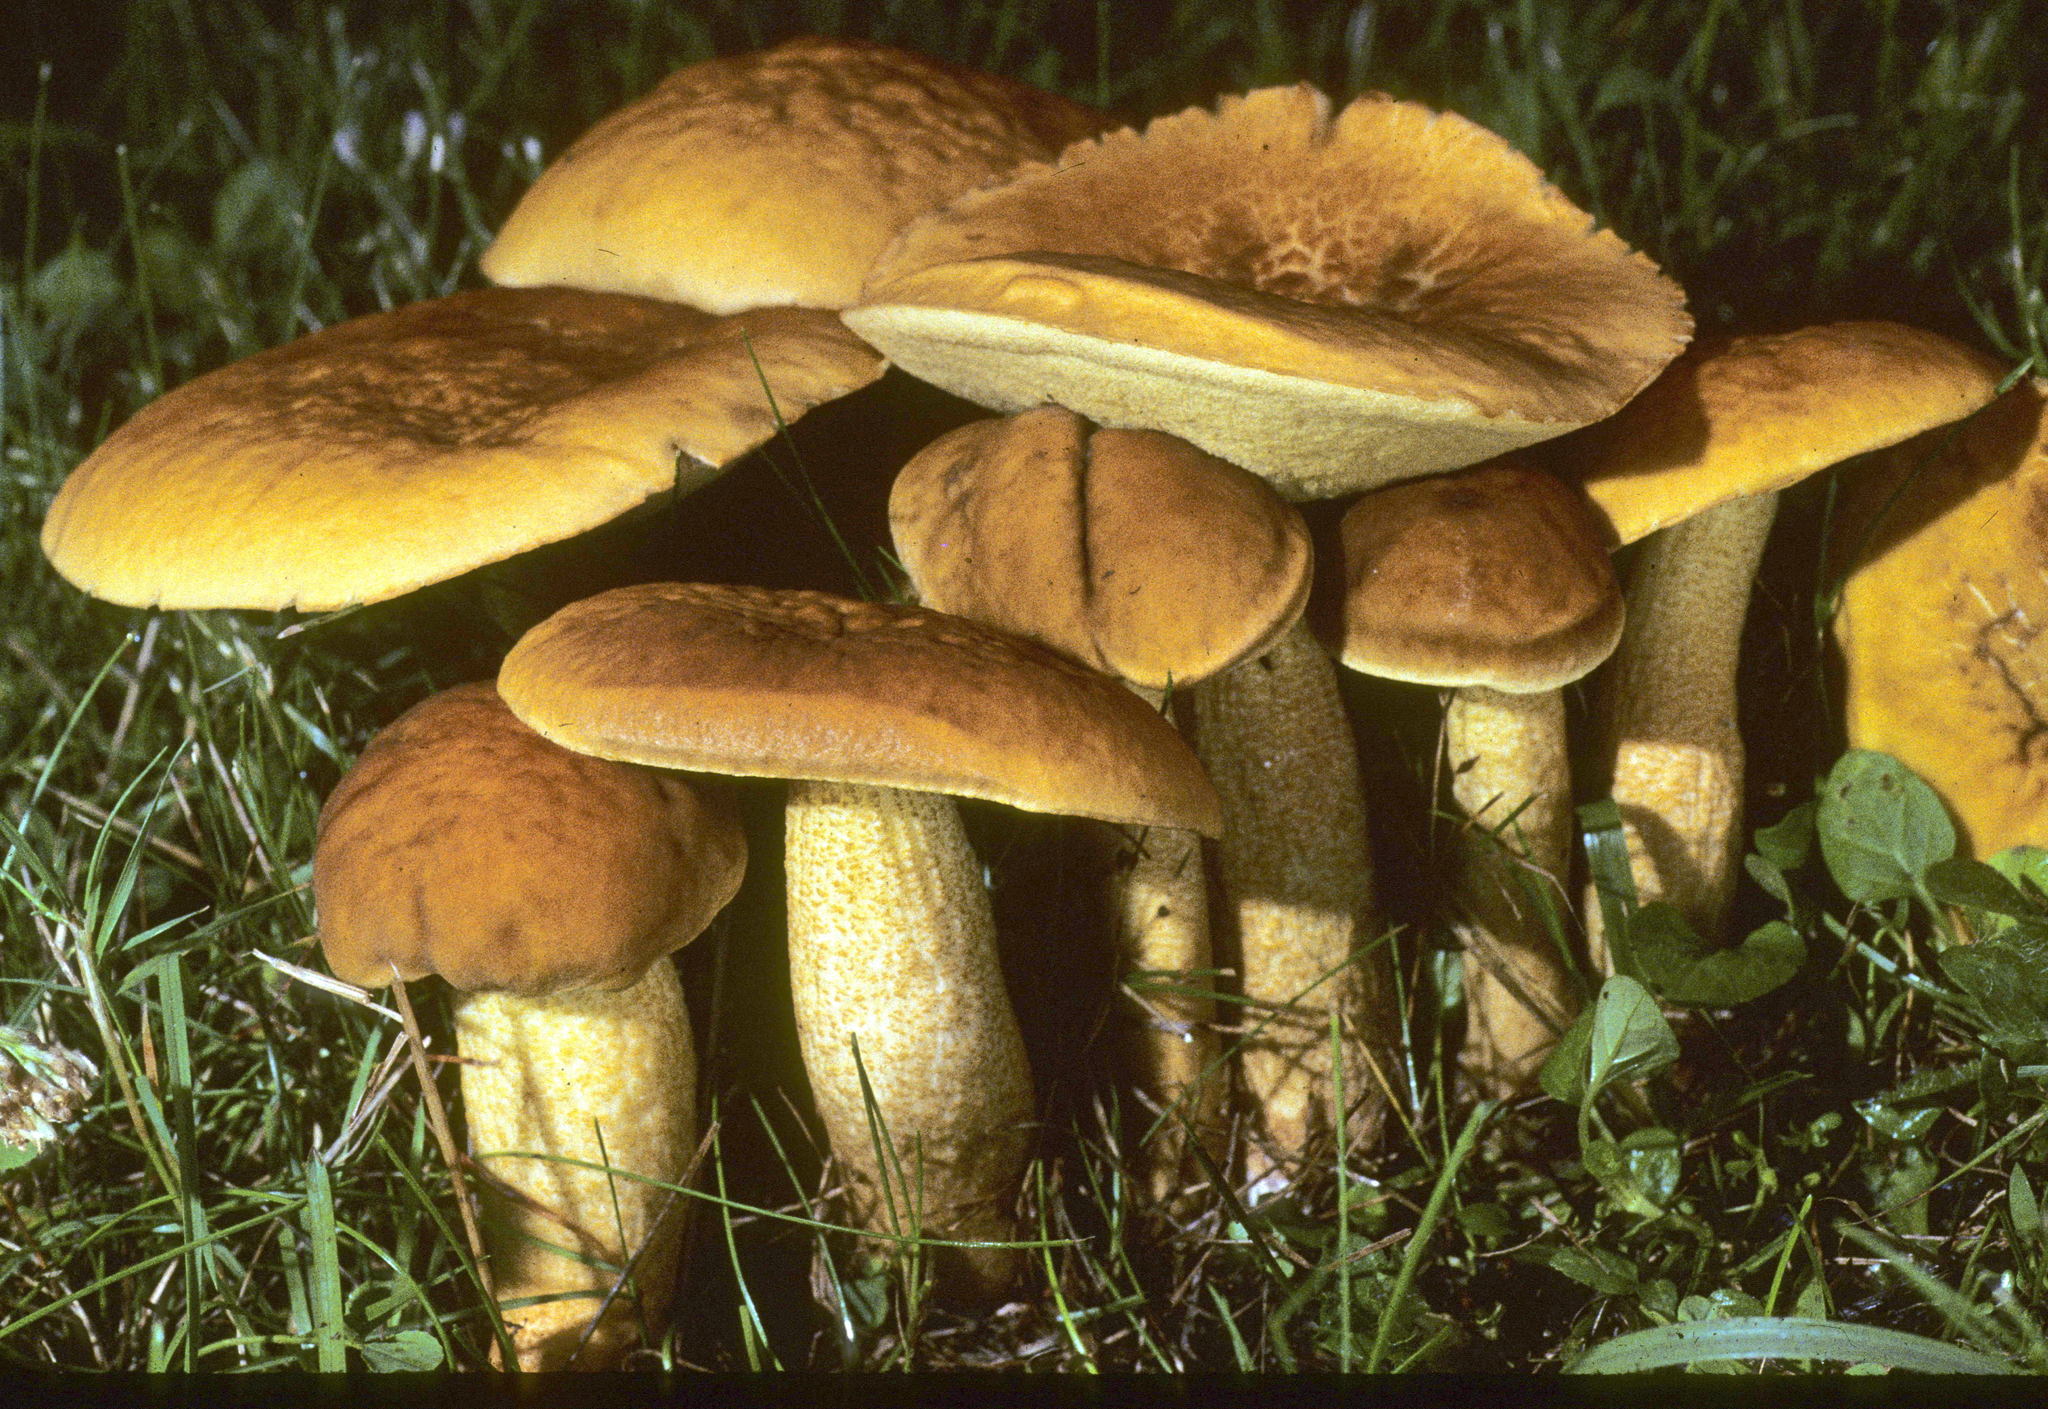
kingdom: Fungi
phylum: Basidiomycota
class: Agaricomycetes
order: Boletales
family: Boletaceae
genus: Leccinellum
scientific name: Leccinellum rugosiceps
